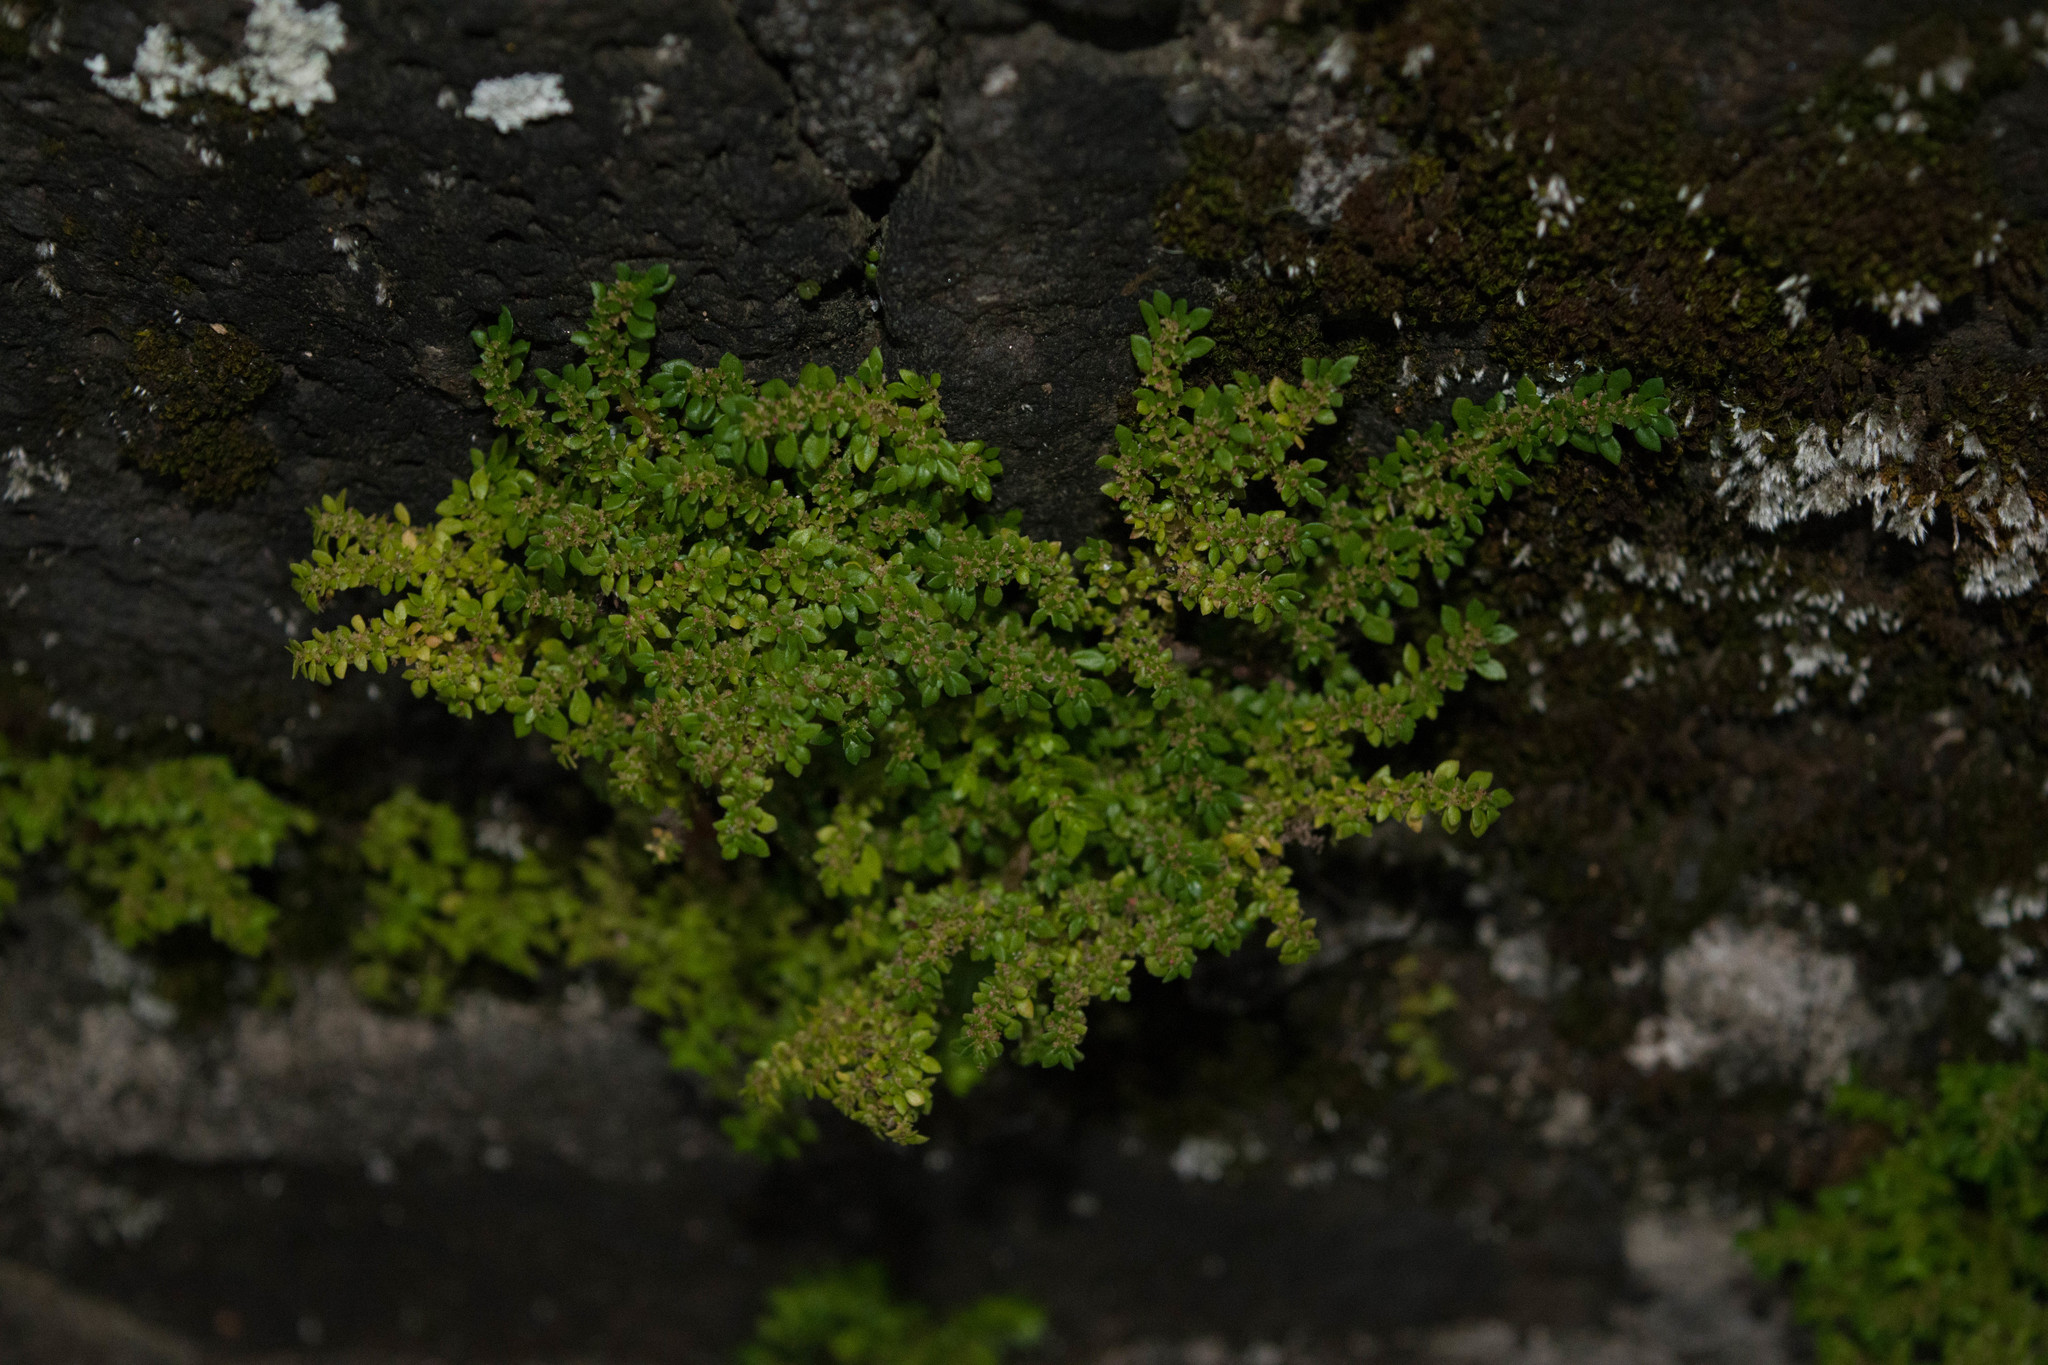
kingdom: Plantae
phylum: Tracheophyta
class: Magnoliopsida
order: Rosales
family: Urticaceae
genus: Pilea
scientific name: Pilea microphylla
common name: Artillery-plant
